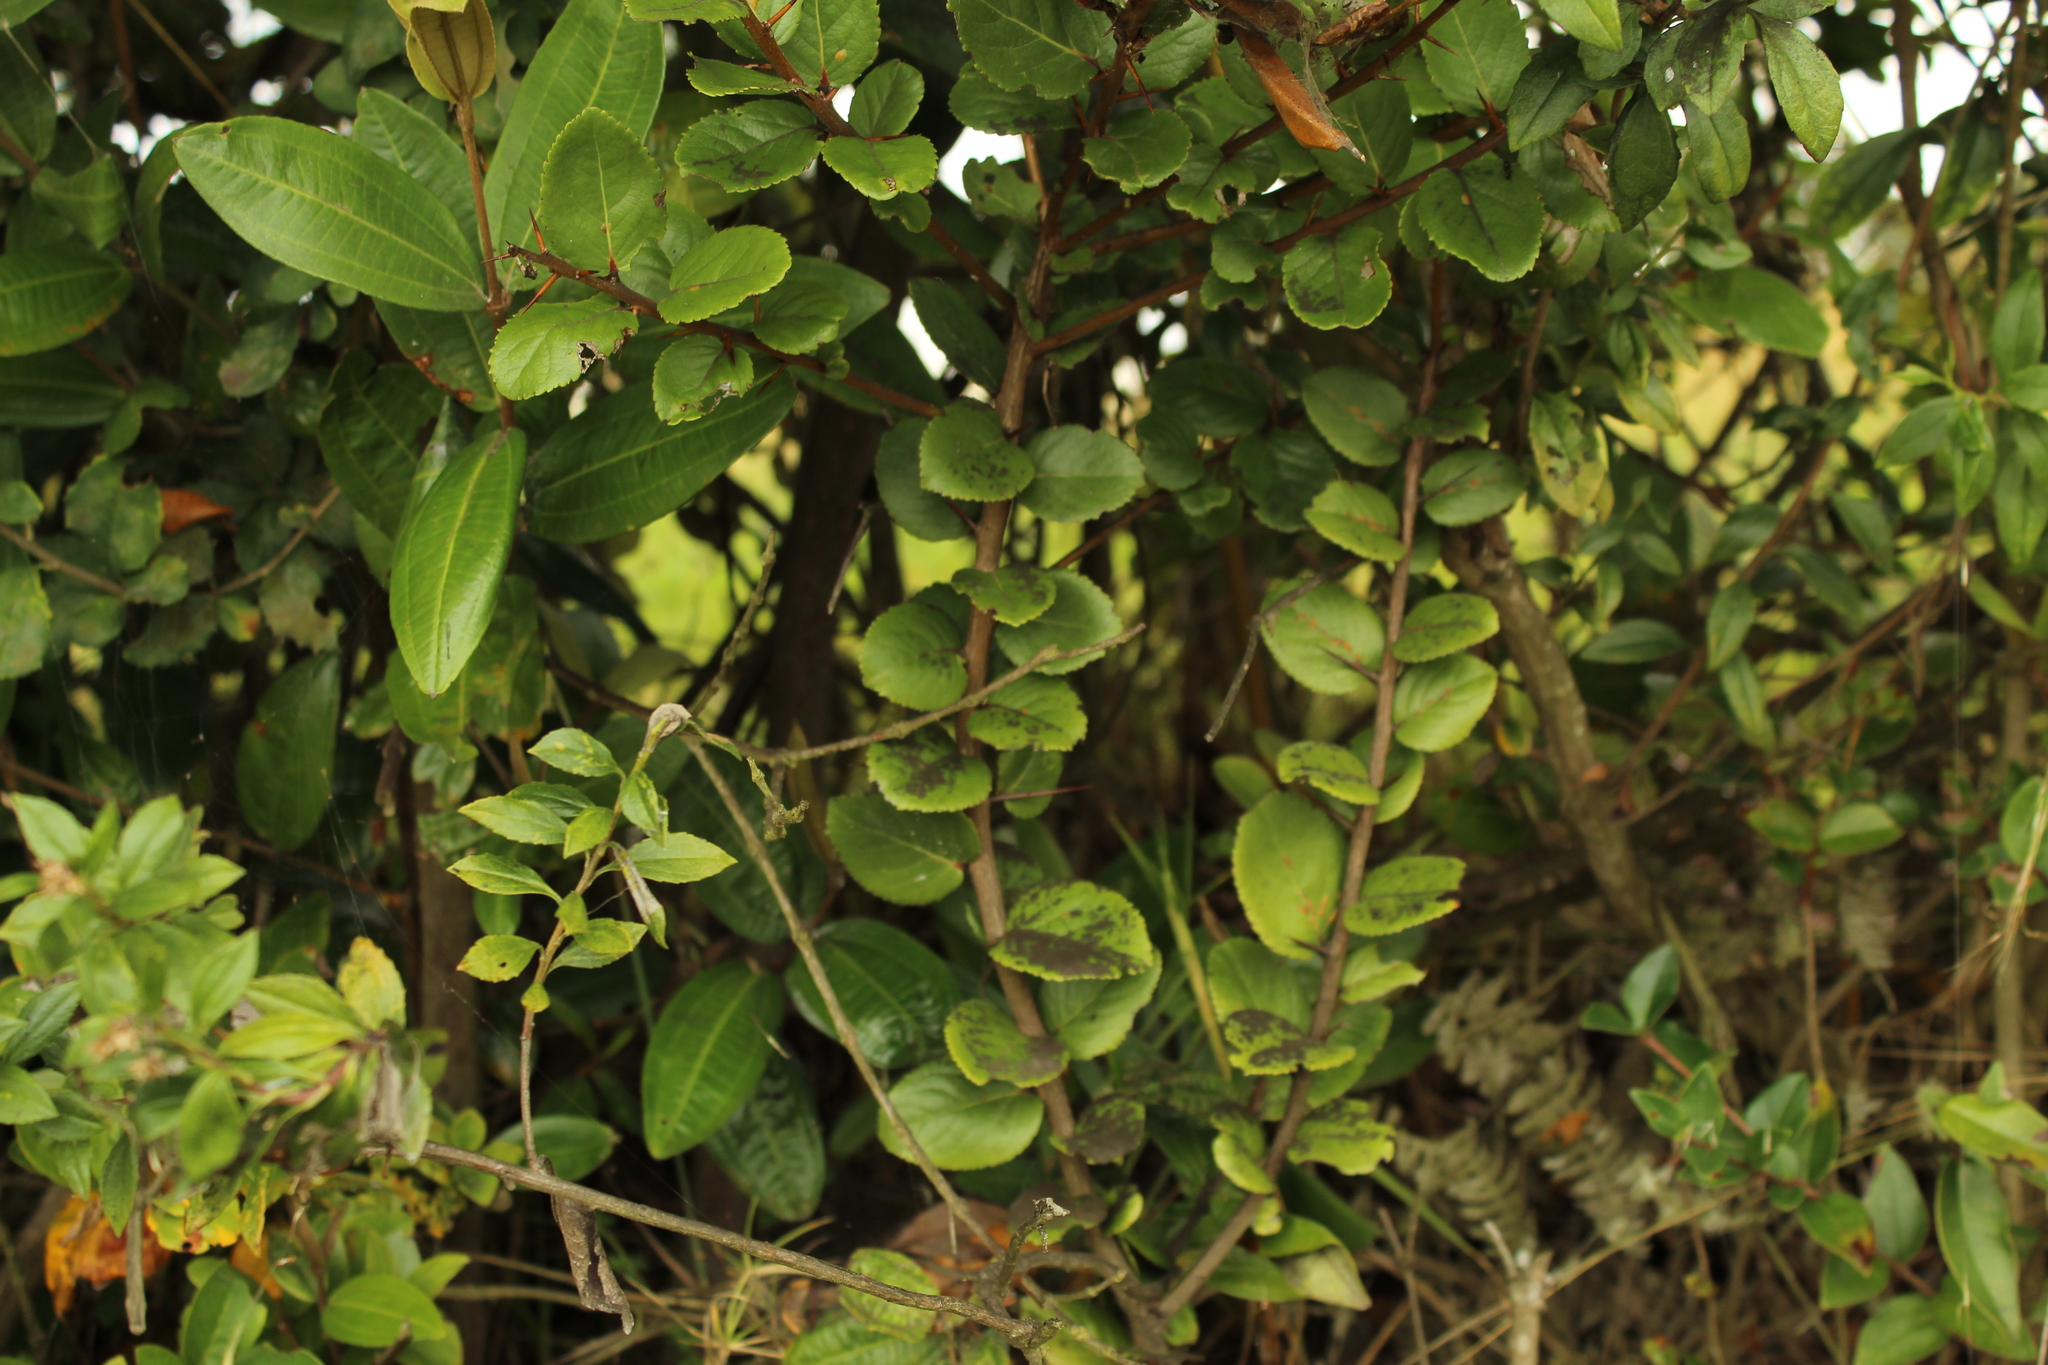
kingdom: Plantae
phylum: Tracheophyta
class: Magnoliopsida
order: Malpighiales
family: Salicaceae
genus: Xylosma
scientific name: Xylosma spiculifera
